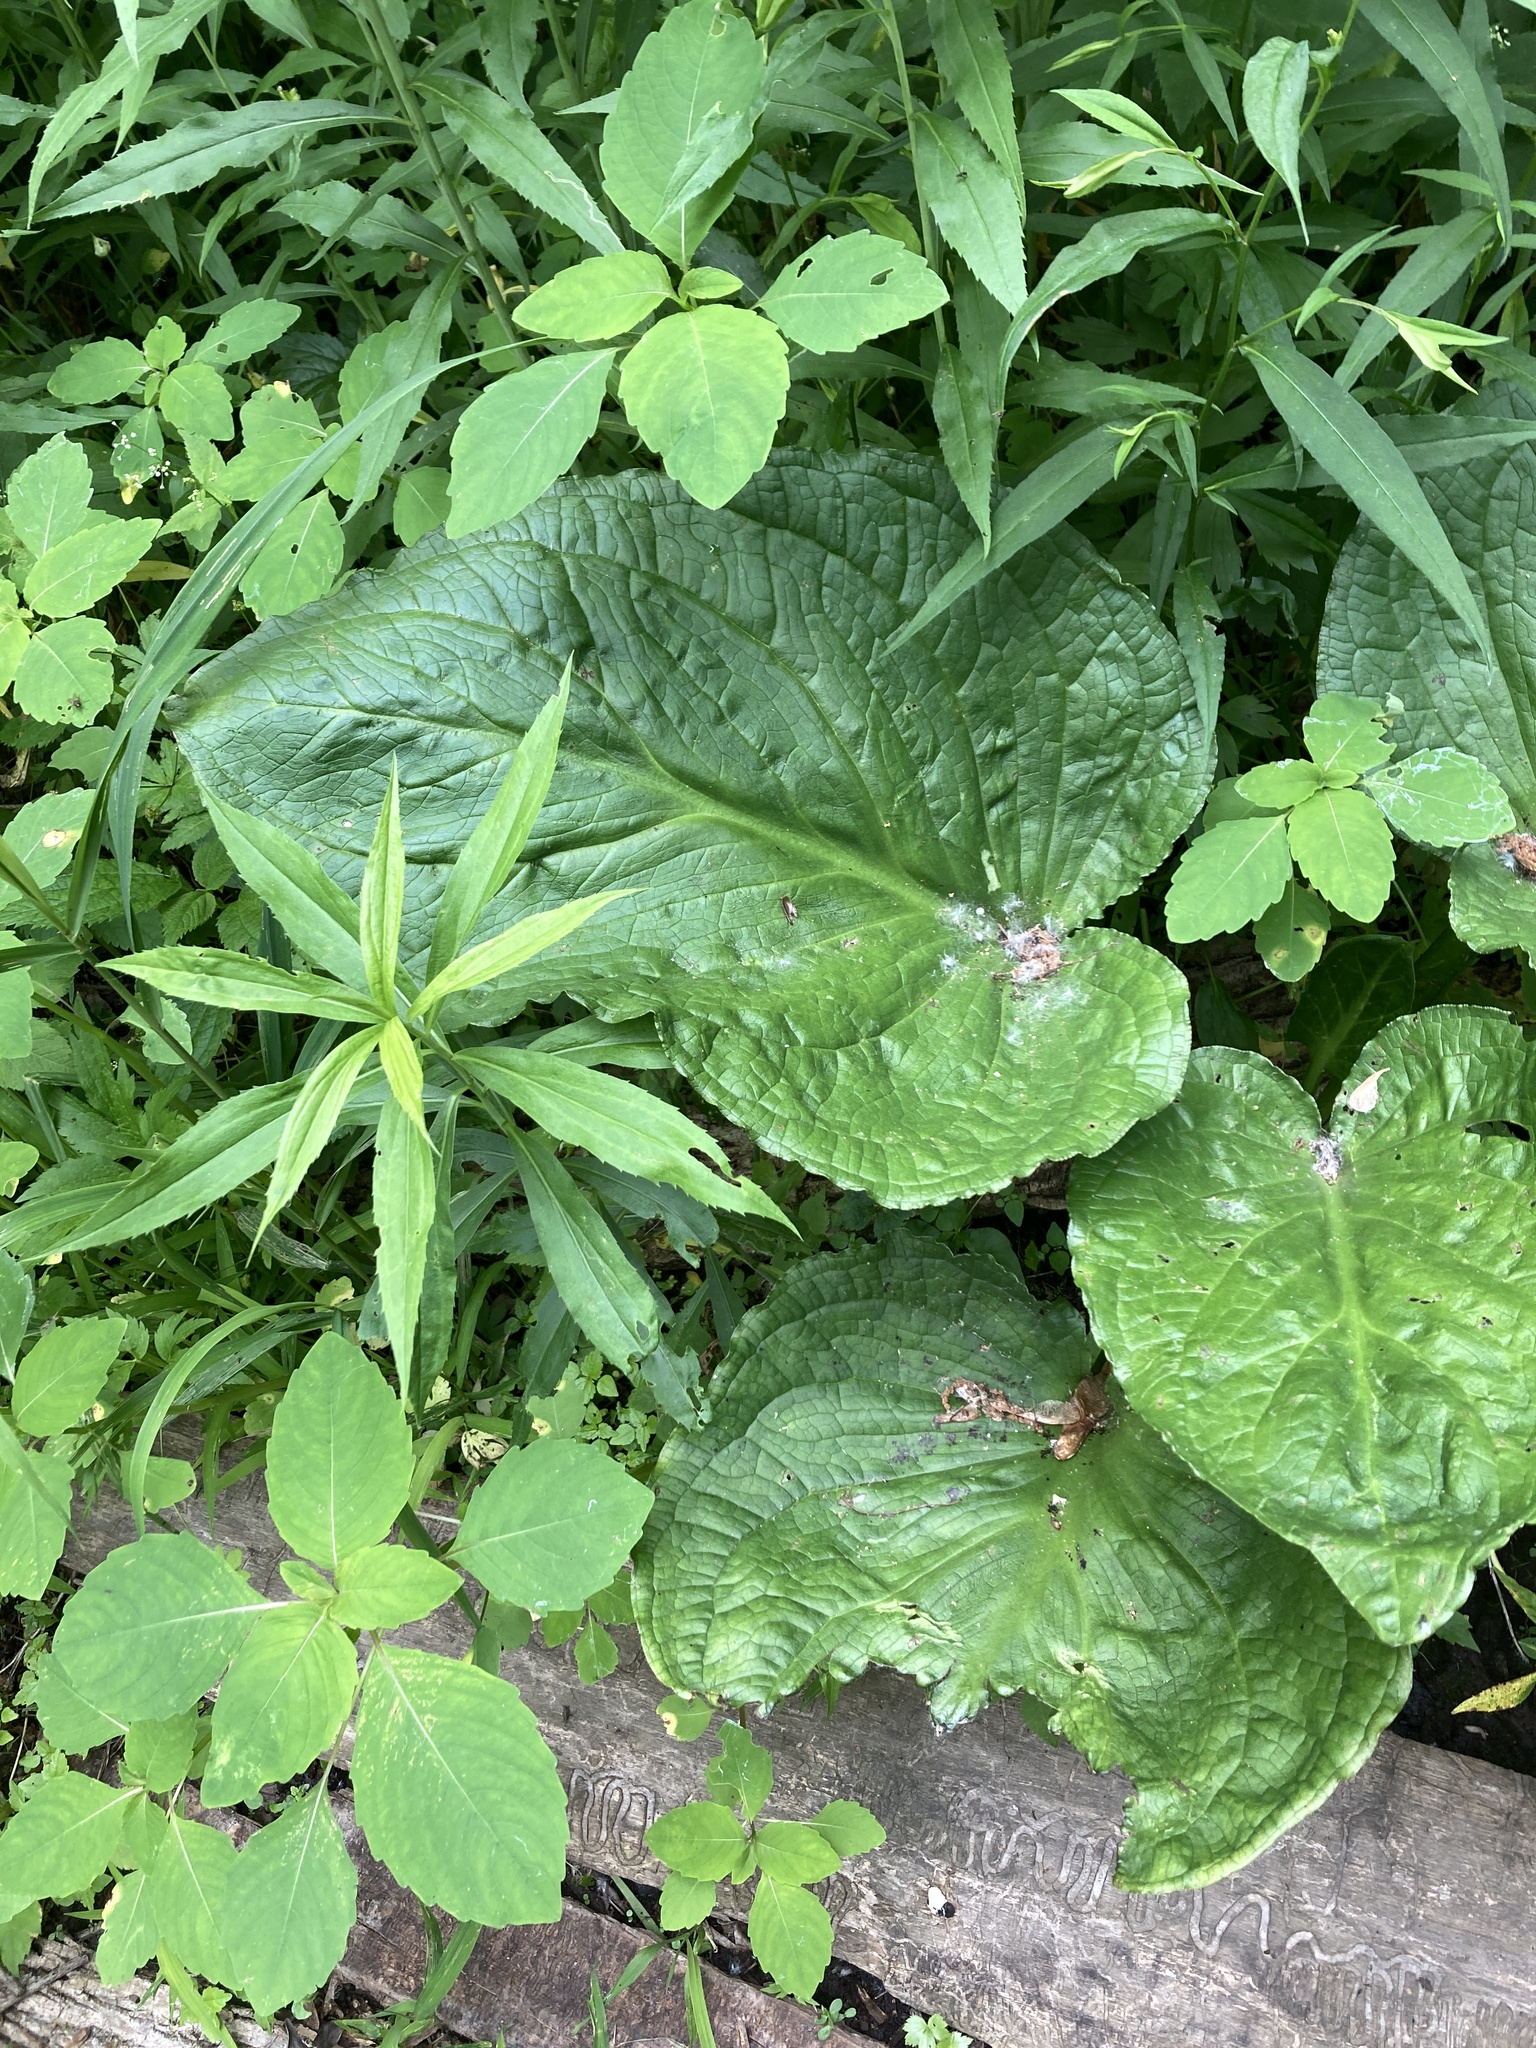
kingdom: Plantae
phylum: Tracheophyta
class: Liliopsida
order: Alismatales
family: Araceae
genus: Symplocarpus
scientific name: Symplocarpus foetidus
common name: Eastern skunk cabbage
